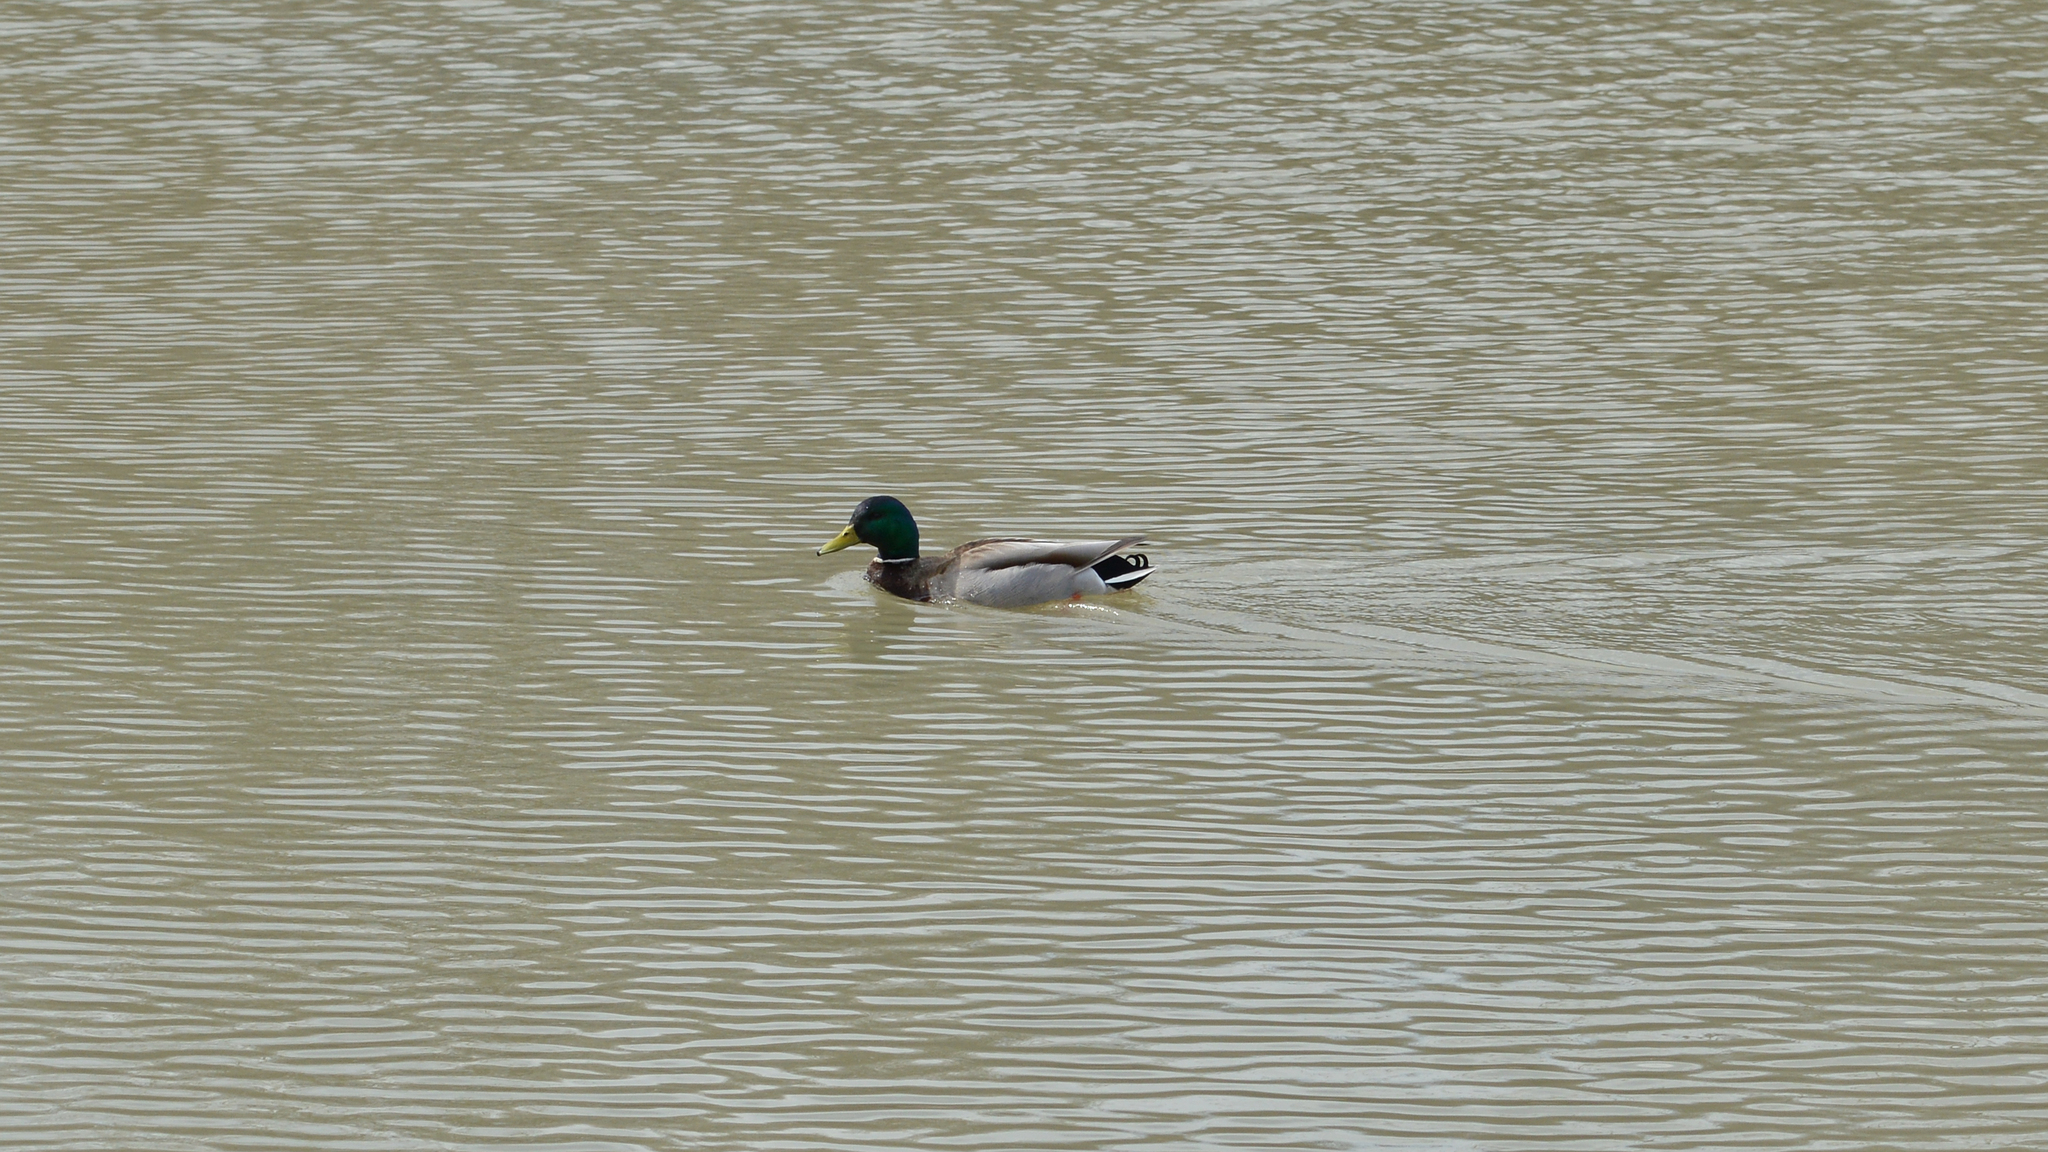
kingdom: Animalia
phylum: Chordata
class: Aves
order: Anseriformes
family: Anatidae
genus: Anas
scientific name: Anas platyrhynchos
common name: Mallard
